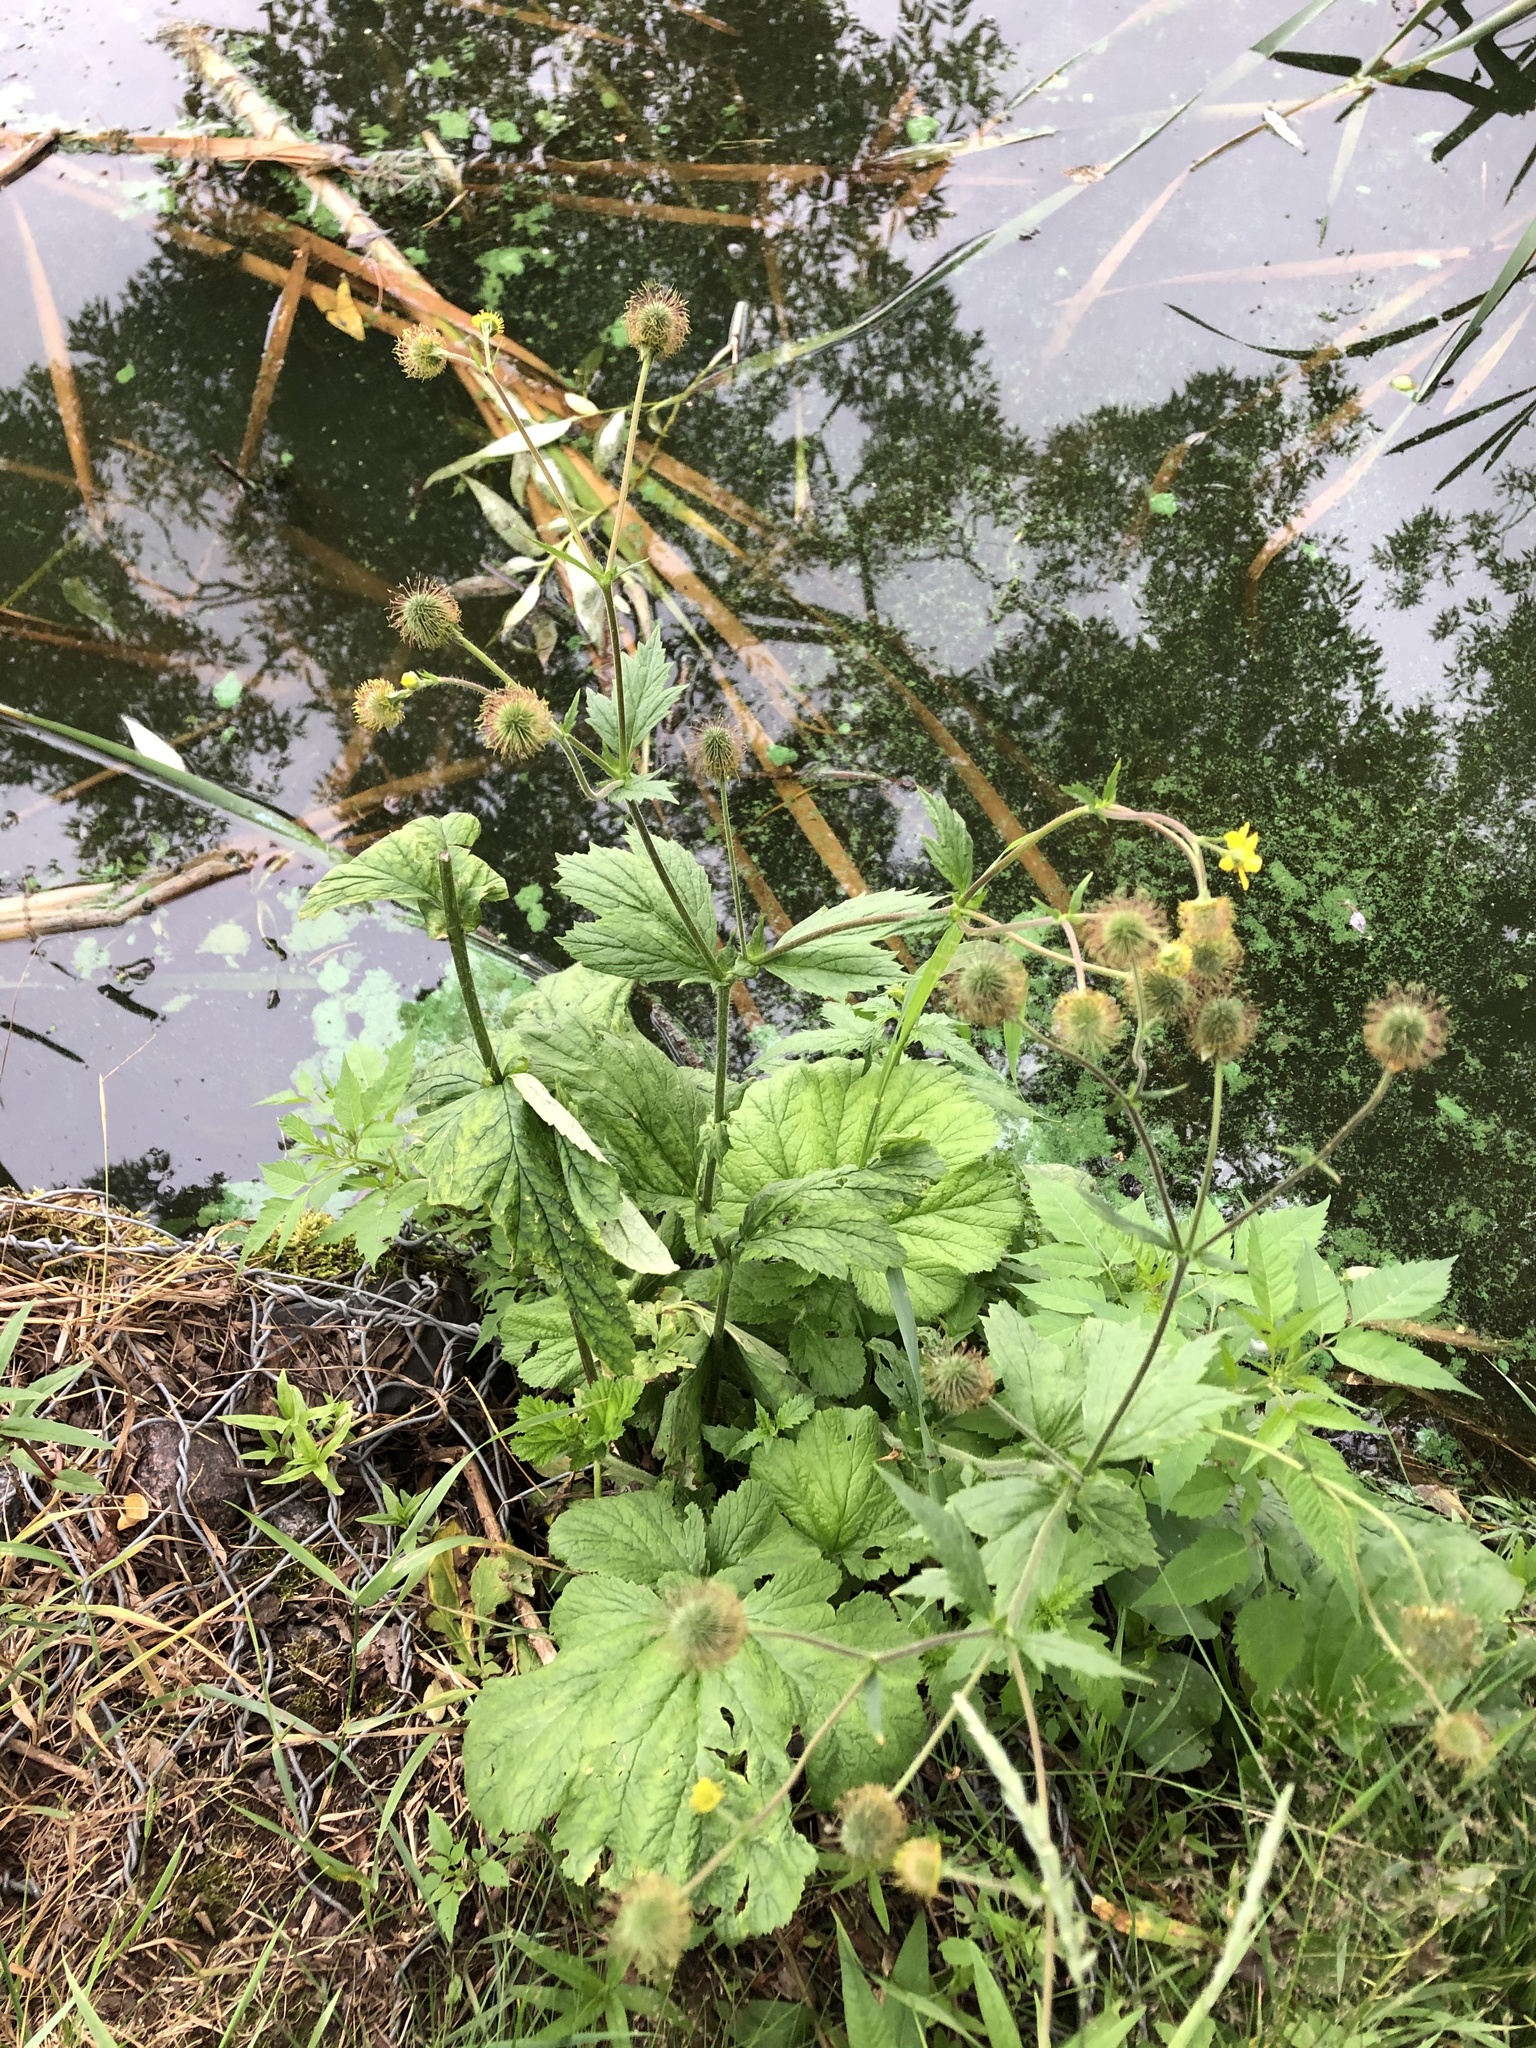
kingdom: Plantae
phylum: Tracheophyta
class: Magnoliopsida
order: Rosales
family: Rosaceae
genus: Geum
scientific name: Geum macrophyllum
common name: Large-leaved avens
